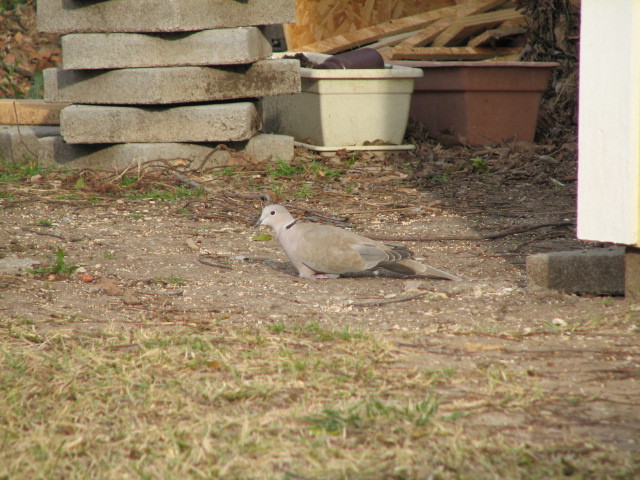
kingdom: Animalia
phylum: Chordata
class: Aves
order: Columbiformes
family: Columbidae
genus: Streptopelia
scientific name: Streptopelia decaocto
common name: Eurasian collared dove
